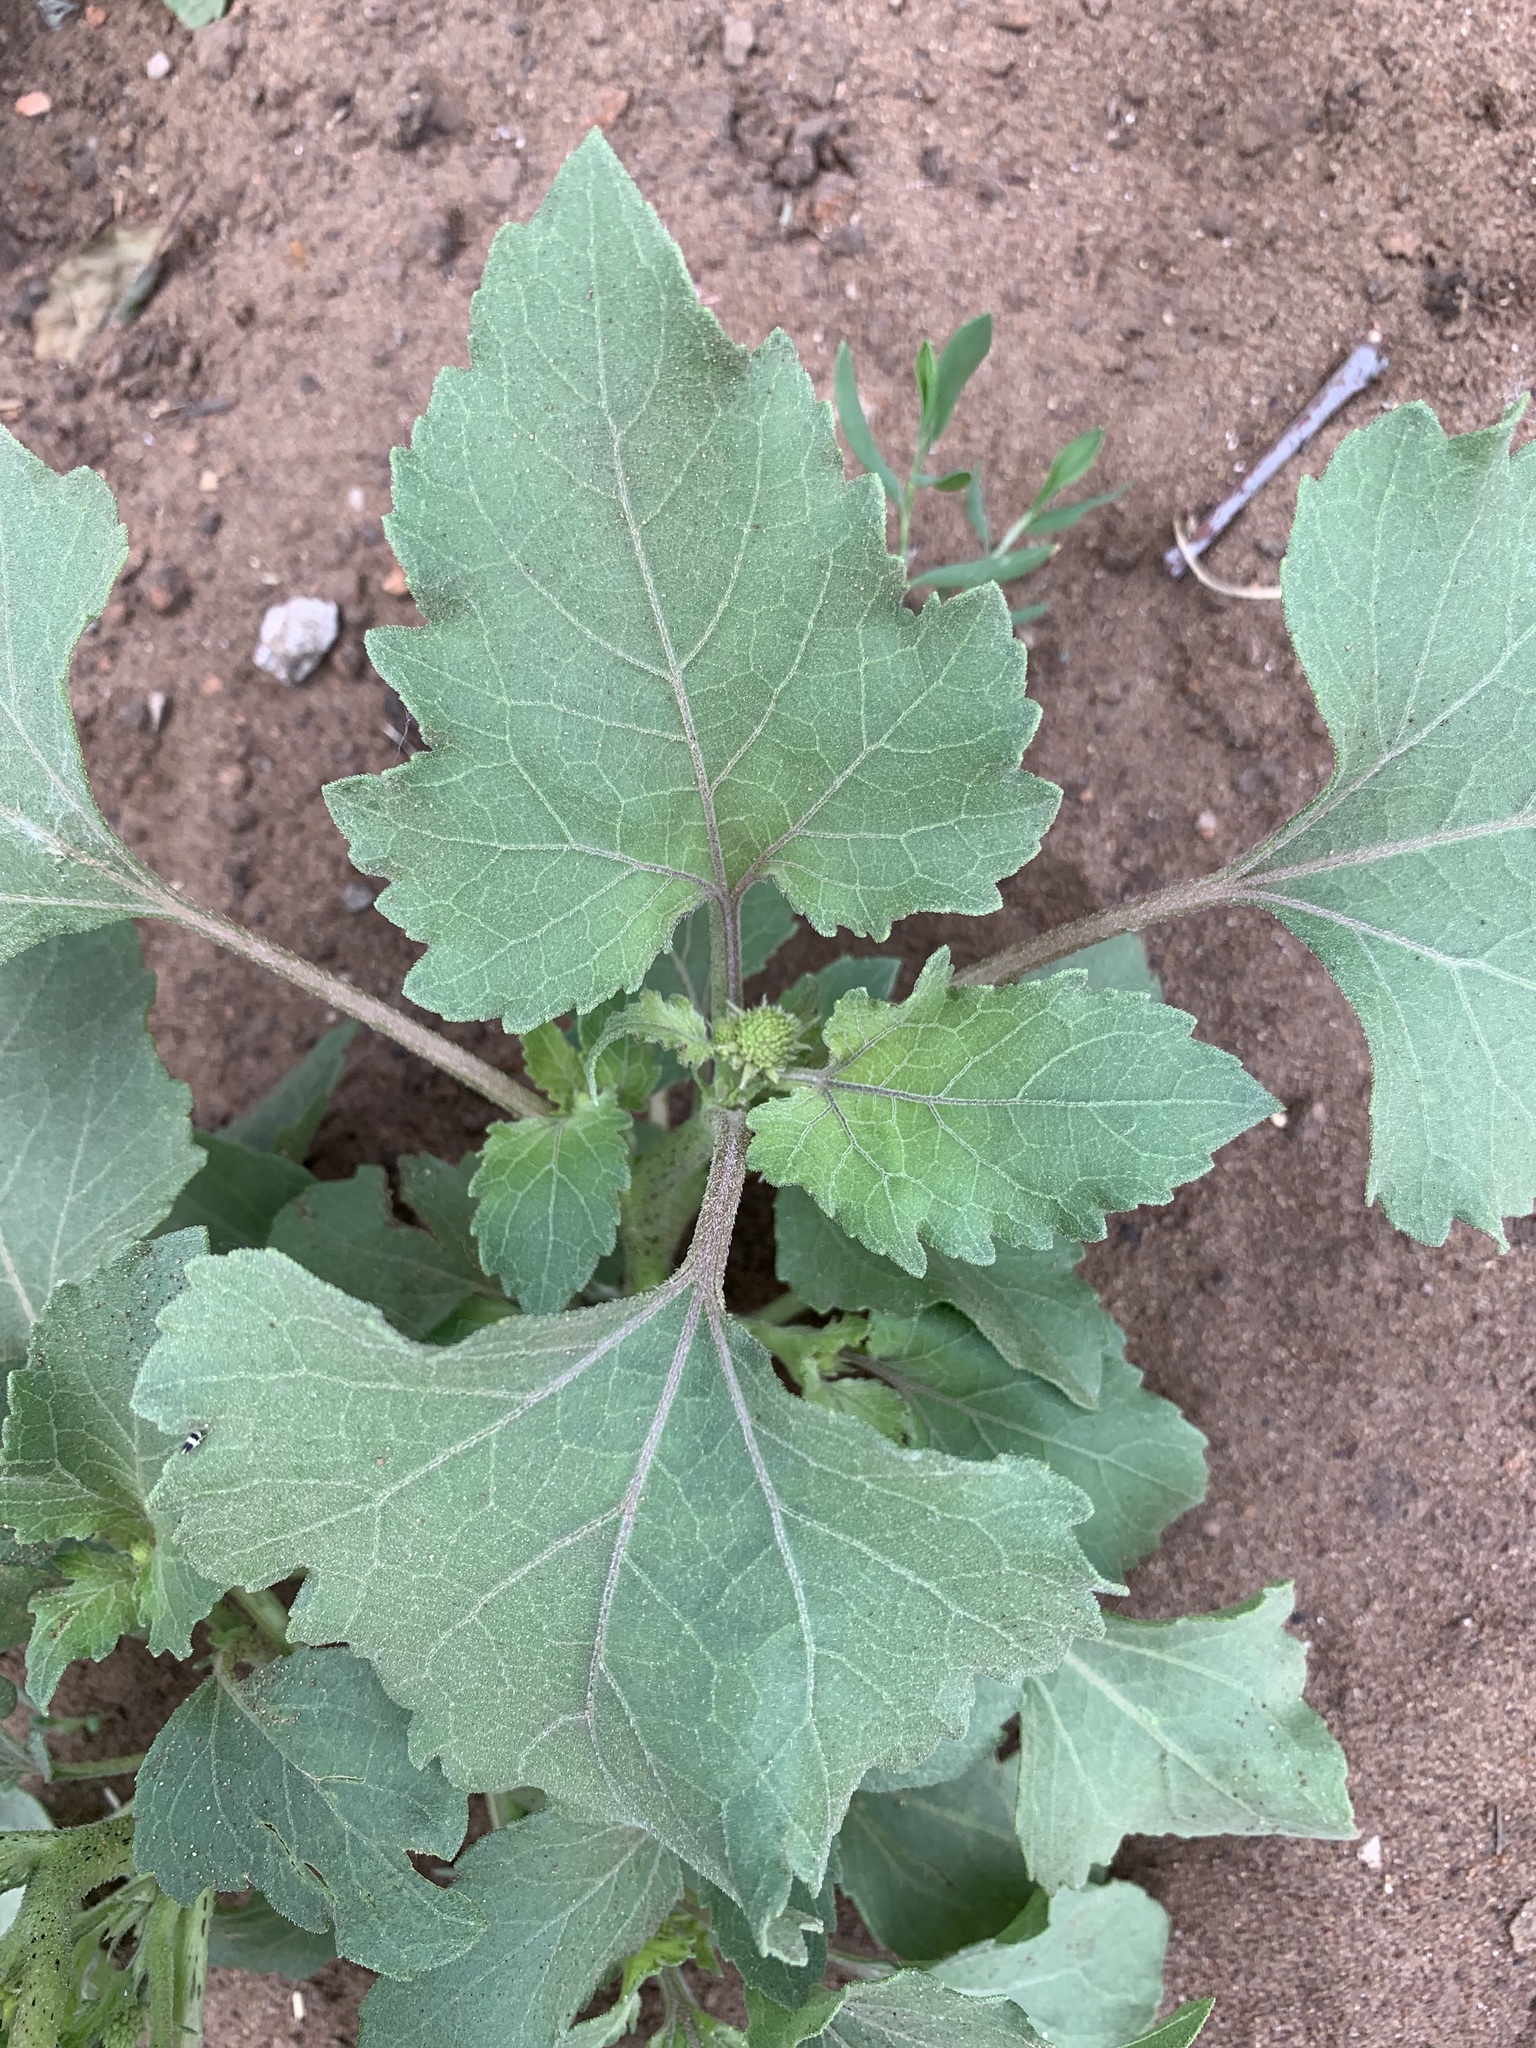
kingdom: Plantae
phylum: Tracheophyta
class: Magnoliopsida
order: Asterales
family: Asteraceae
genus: Xanthium
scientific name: Xanthium orientale
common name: Californian burr
